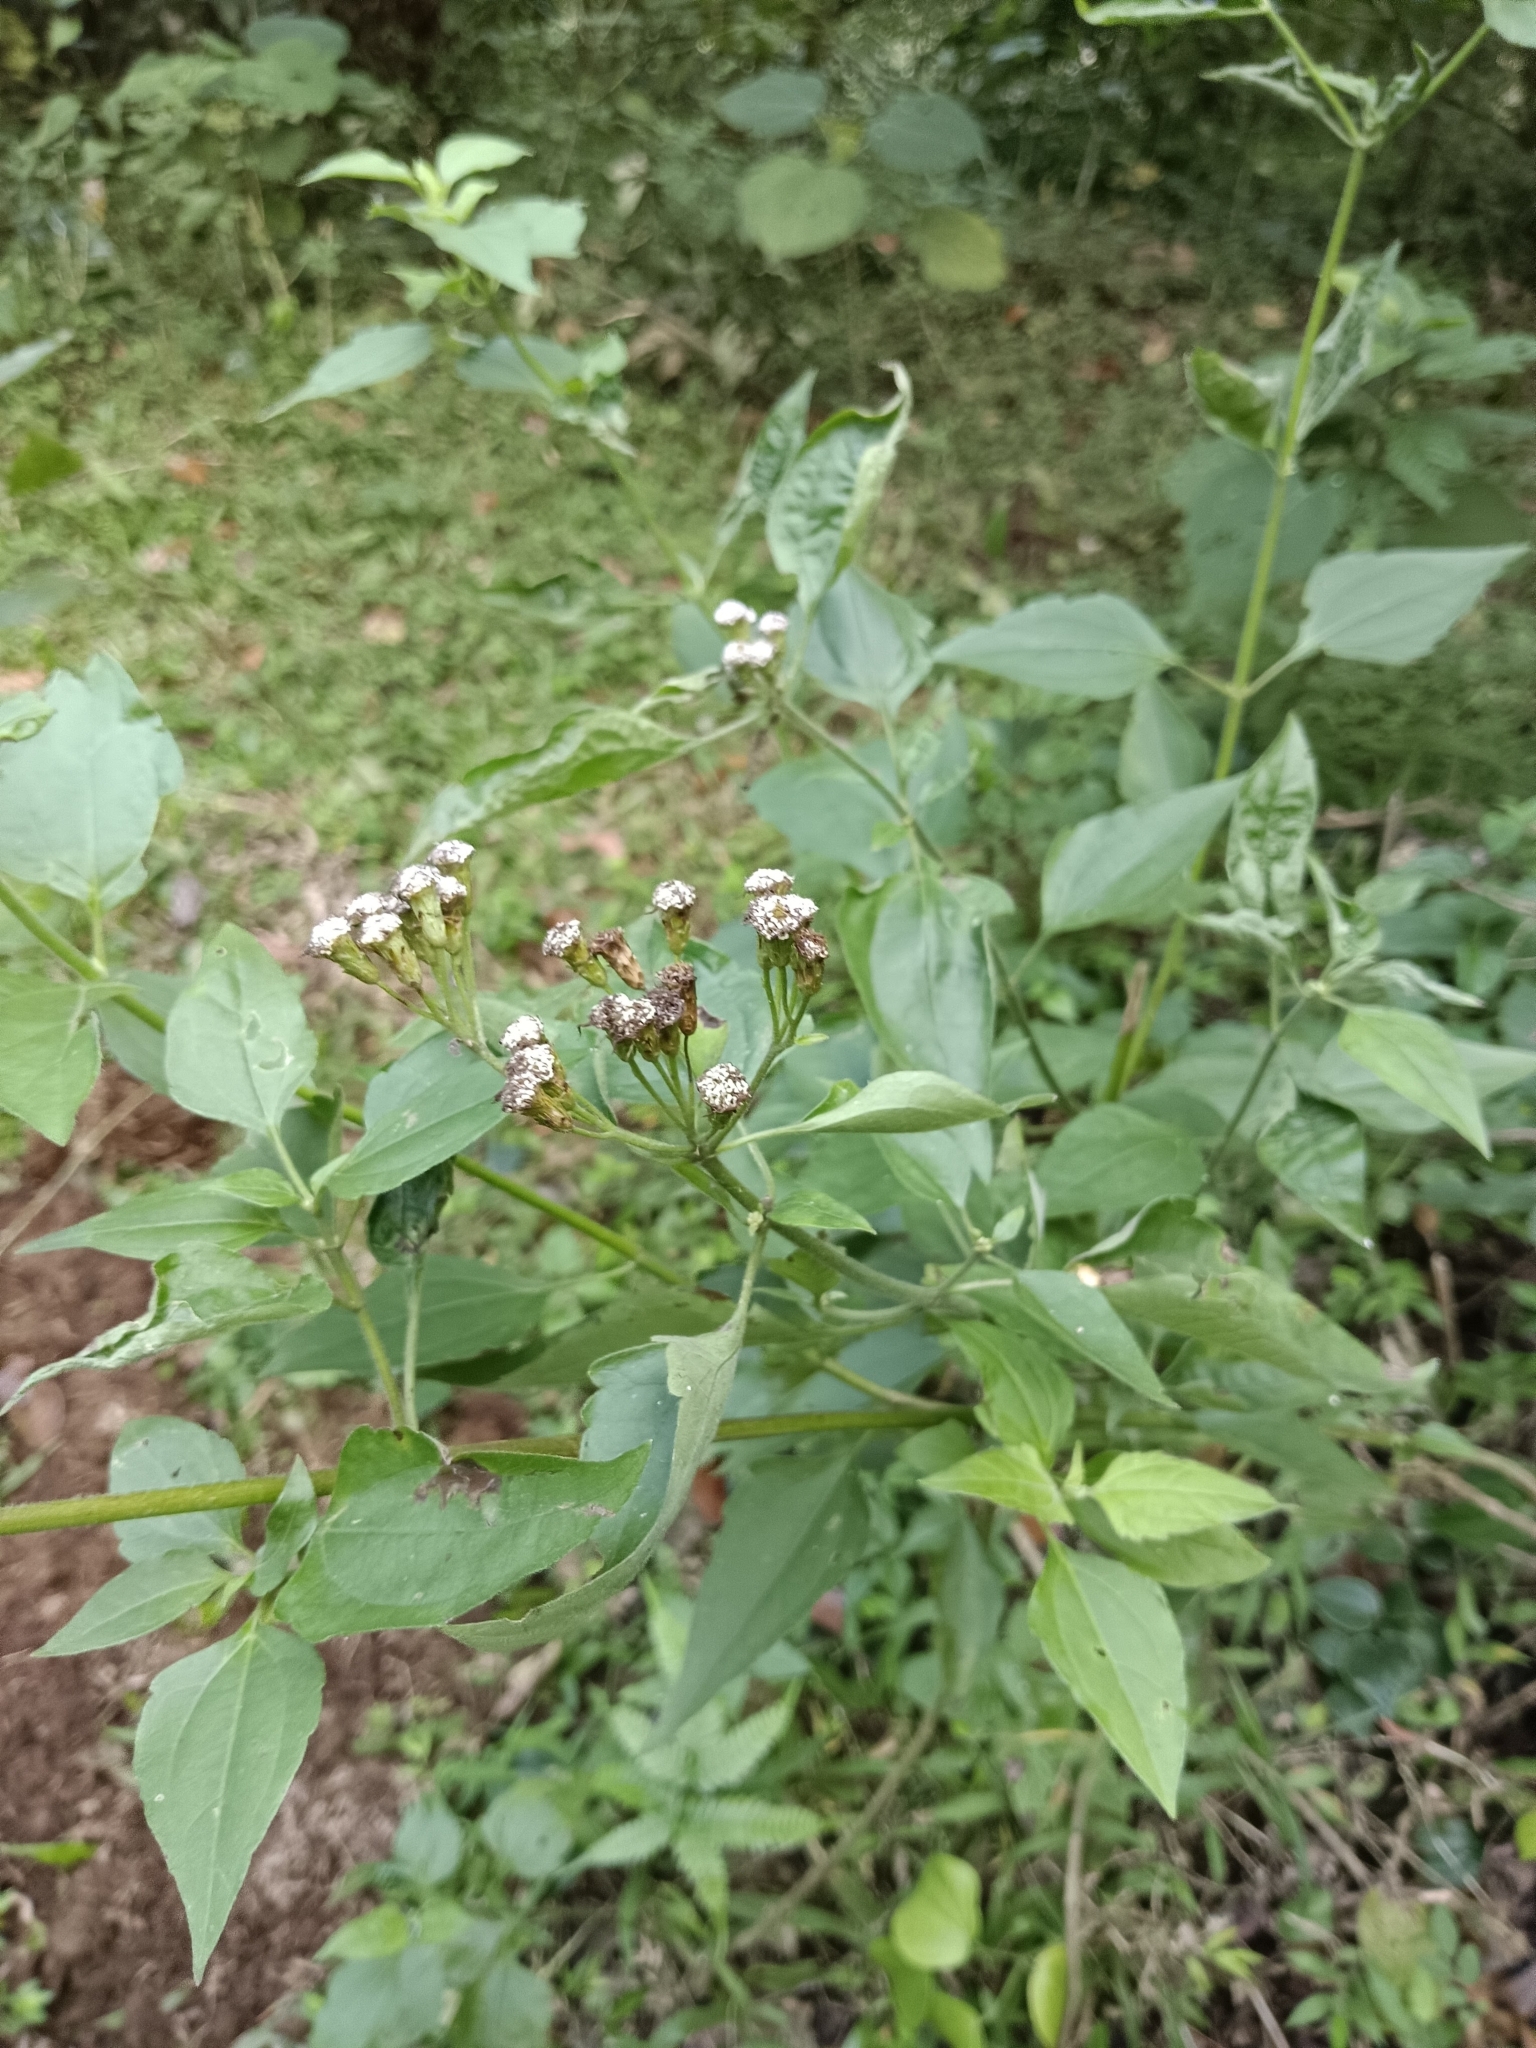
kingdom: Plantae
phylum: Tracheophyta
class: Magnoliopsida
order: Asterales
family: Asteraceae
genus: Chromolaena
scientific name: Chromolaena odorata
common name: Siamweed
